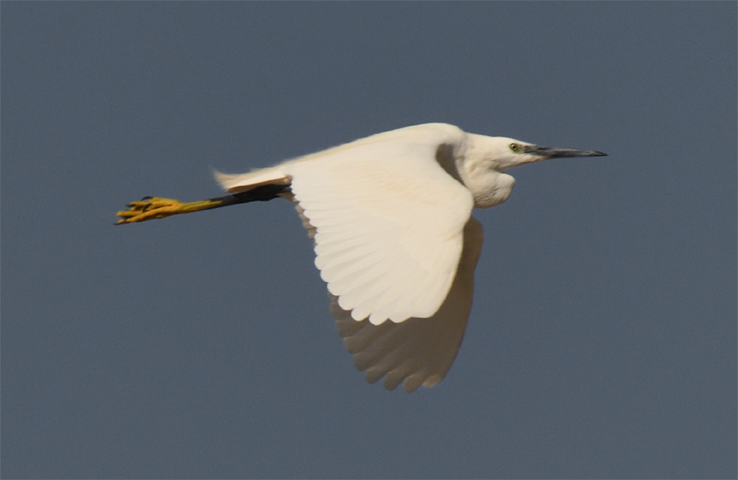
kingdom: Animalia
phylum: Chordata
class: Aves
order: Pelecaniformes
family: Ardeidae
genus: Egretta
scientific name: Egretta garzetta
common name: Little egret
